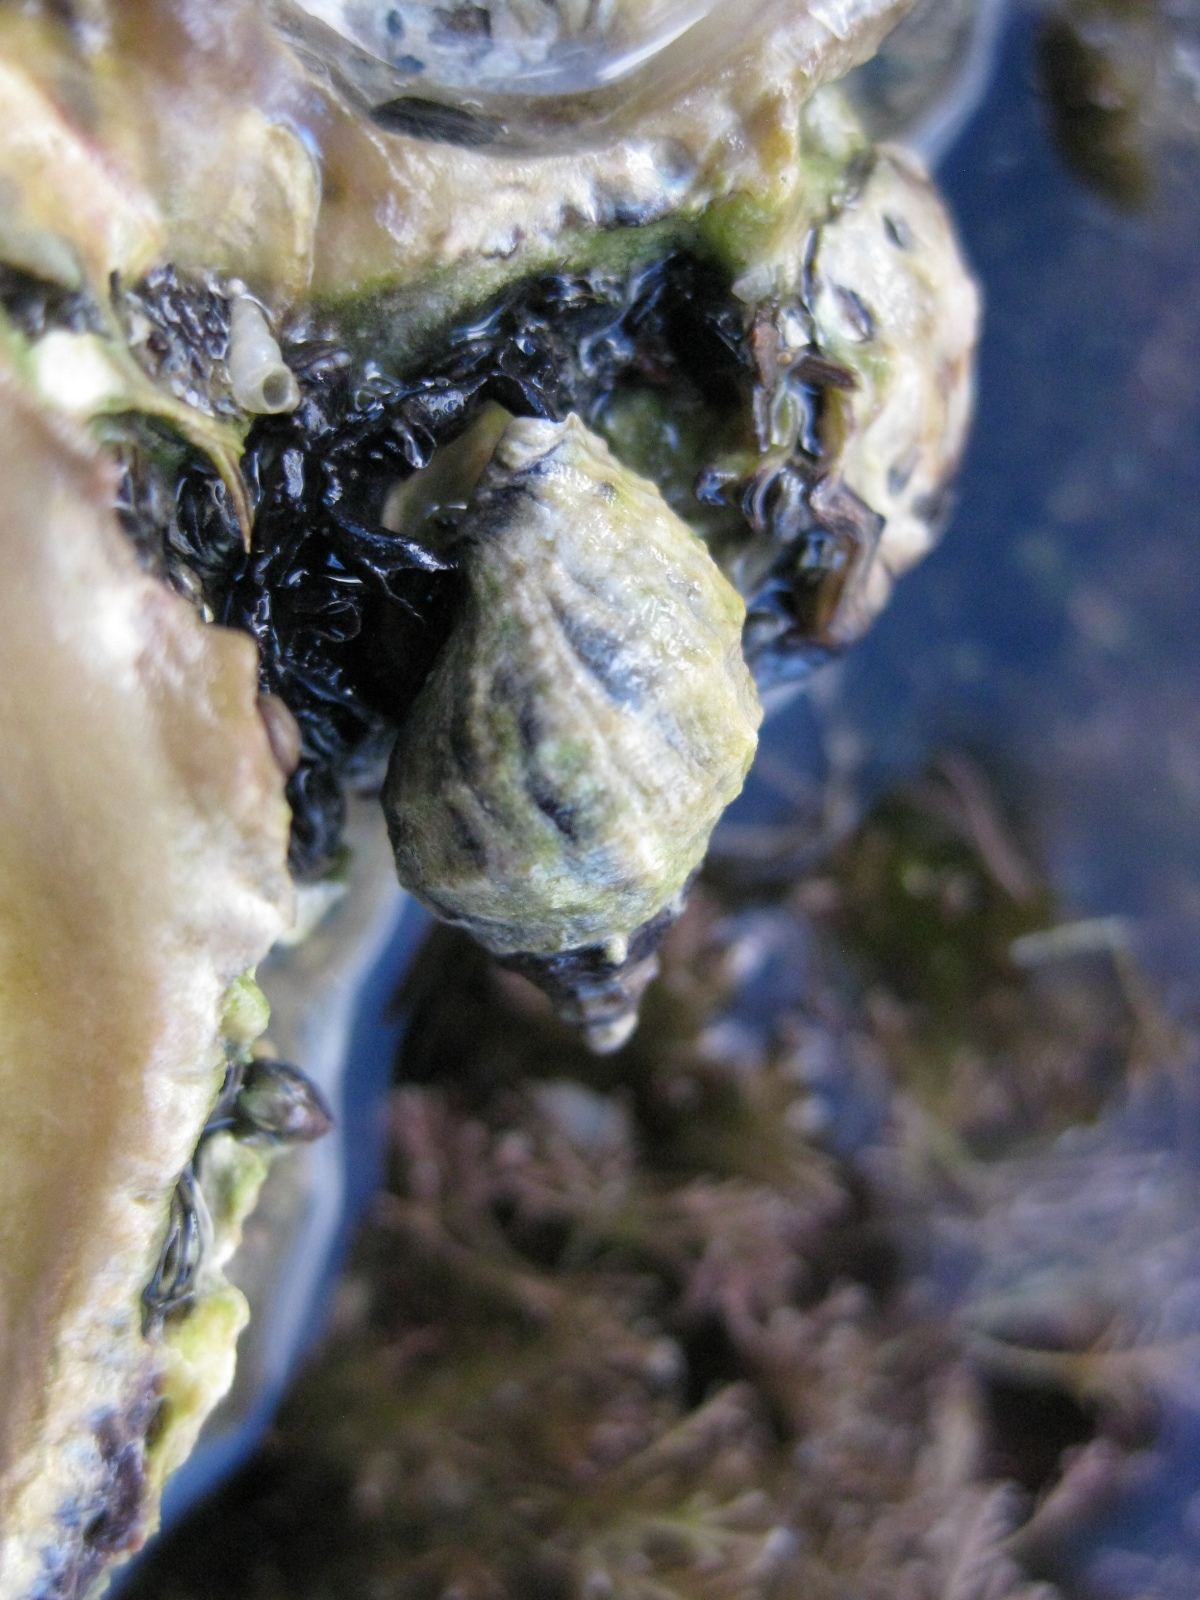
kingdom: Animalia
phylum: Mollusca
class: Gastropoda
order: Neogastropoda
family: Muricidae
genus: Haustrum
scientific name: Haustrum albomarginatum
